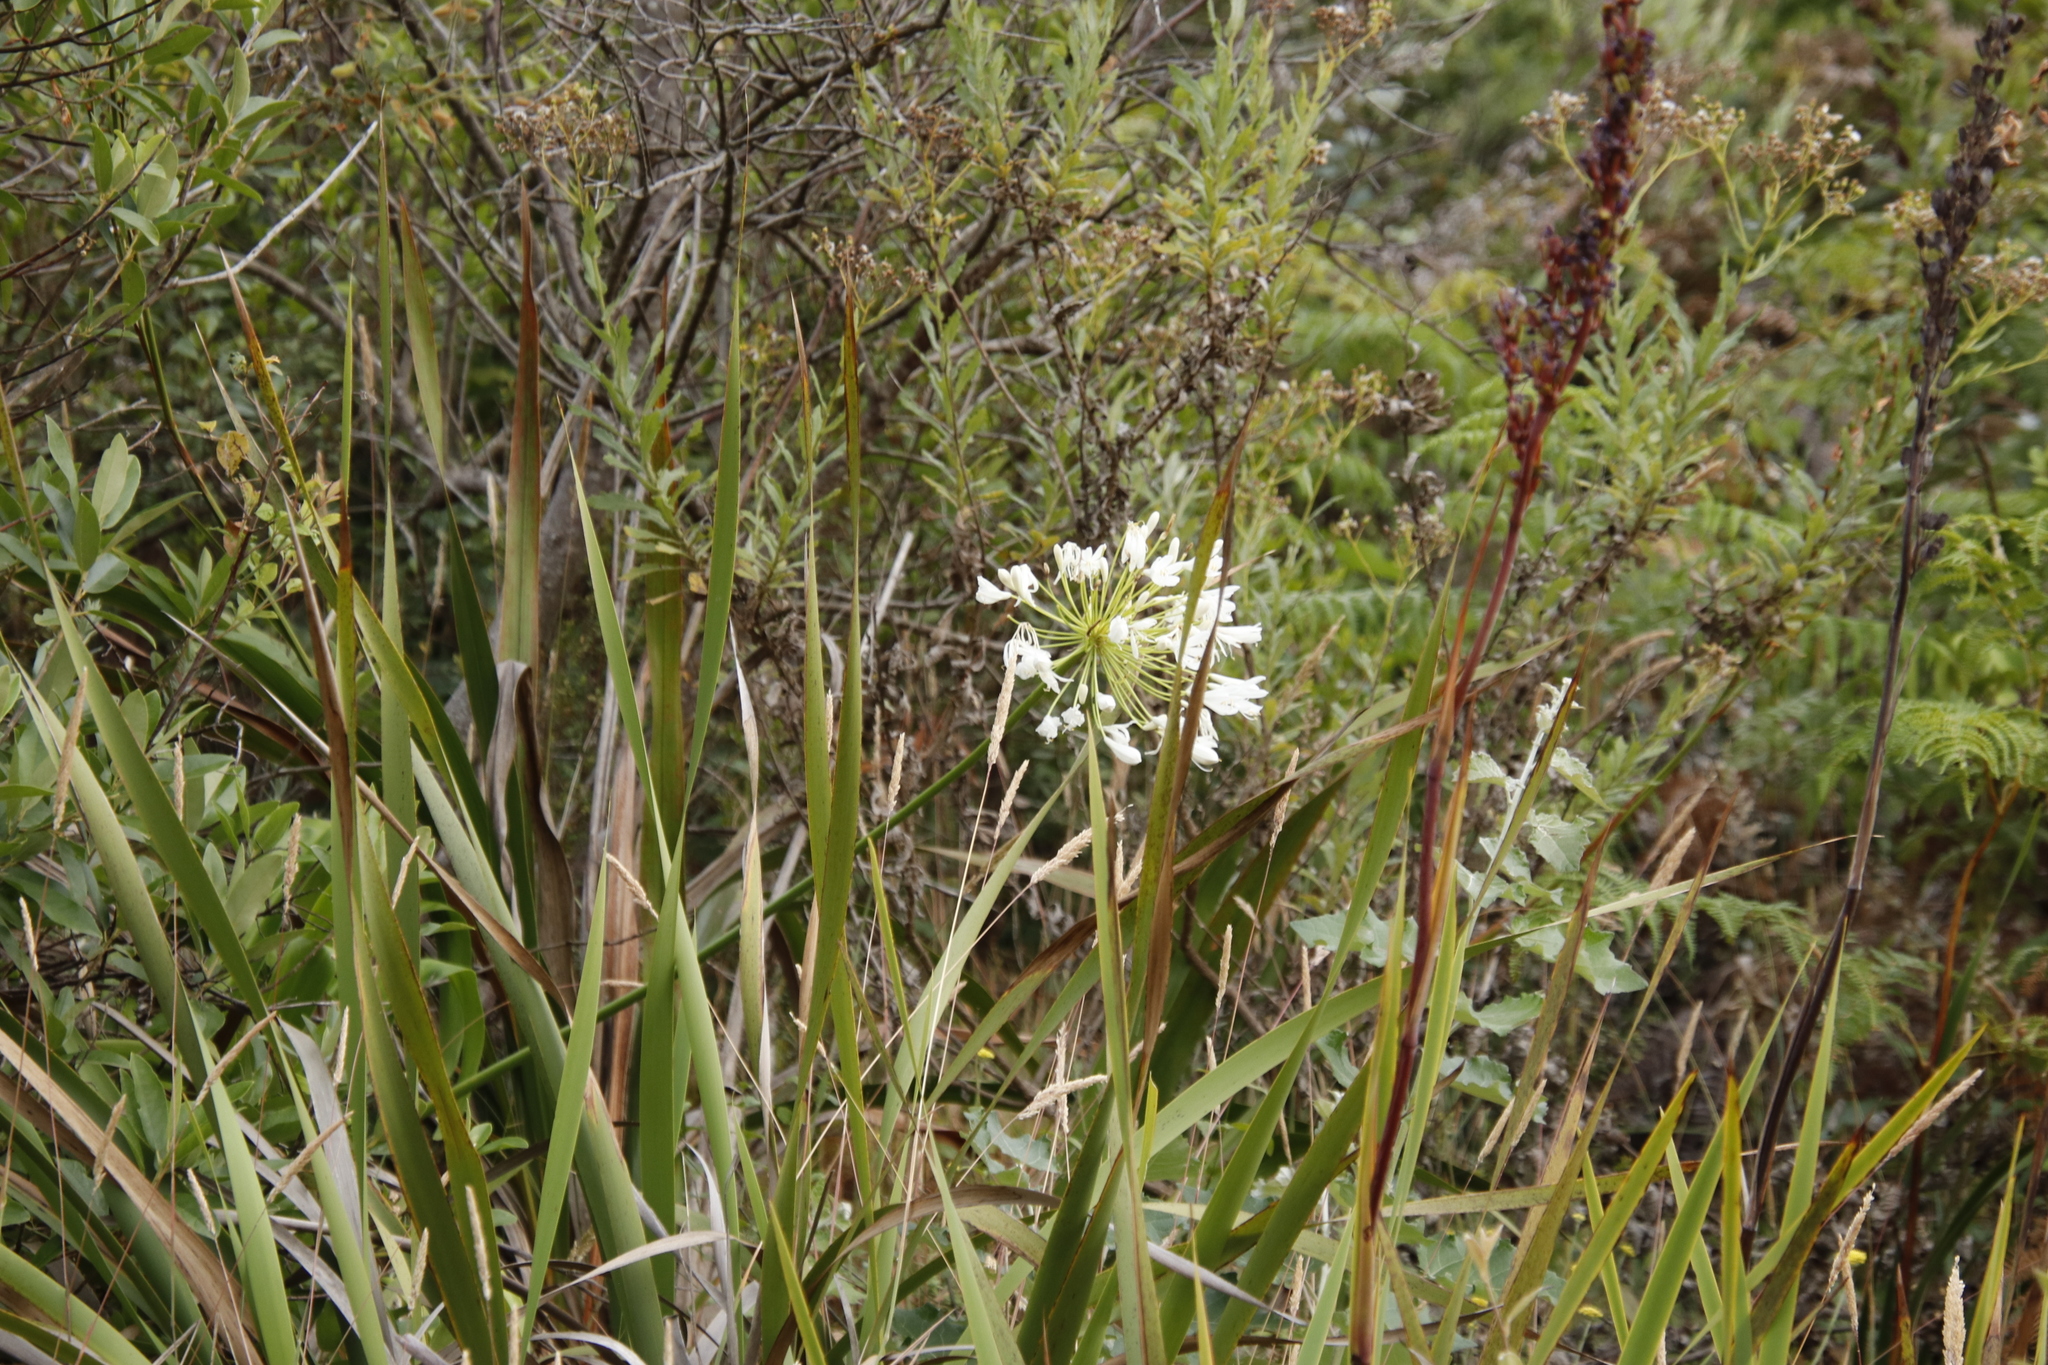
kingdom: Plantae
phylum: Tracheophyta
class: Liliopsida
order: Asparagales
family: Amaryllidaceae
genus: Agapanthus
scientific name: Agapanthus praecox
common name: African-lily
